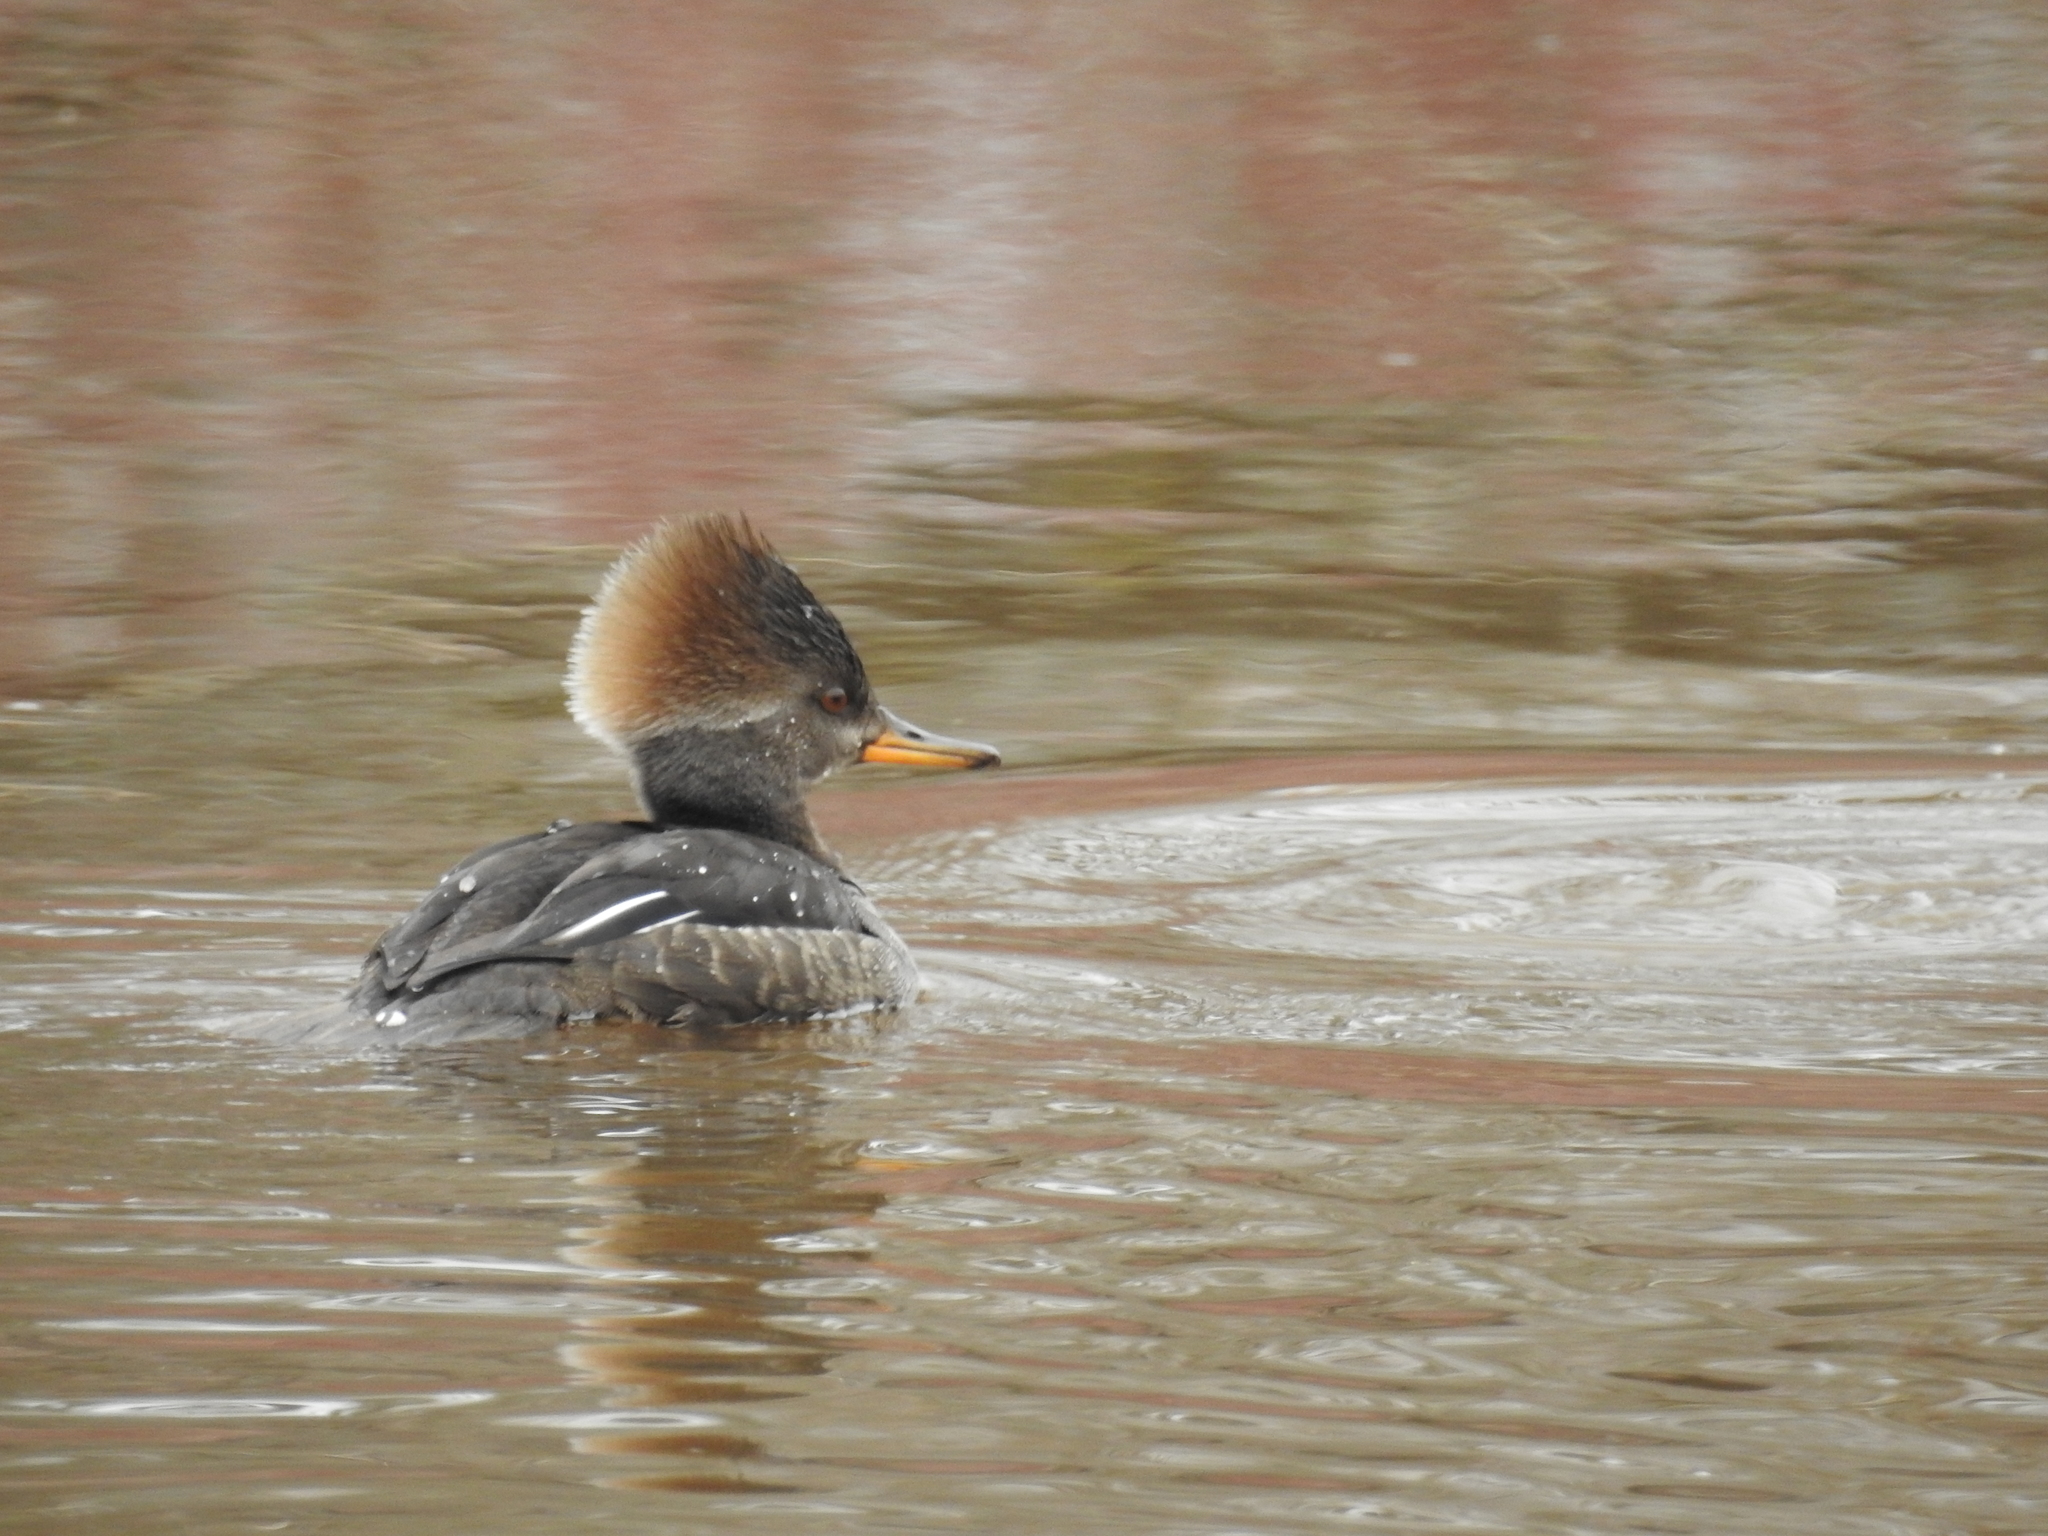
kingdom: Animalia
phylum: Chordata
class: Aves
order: Anseriformes
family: Anatidae
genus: Lophodytes
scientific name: Lophodytes cucullatus
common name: Hooded merganser
